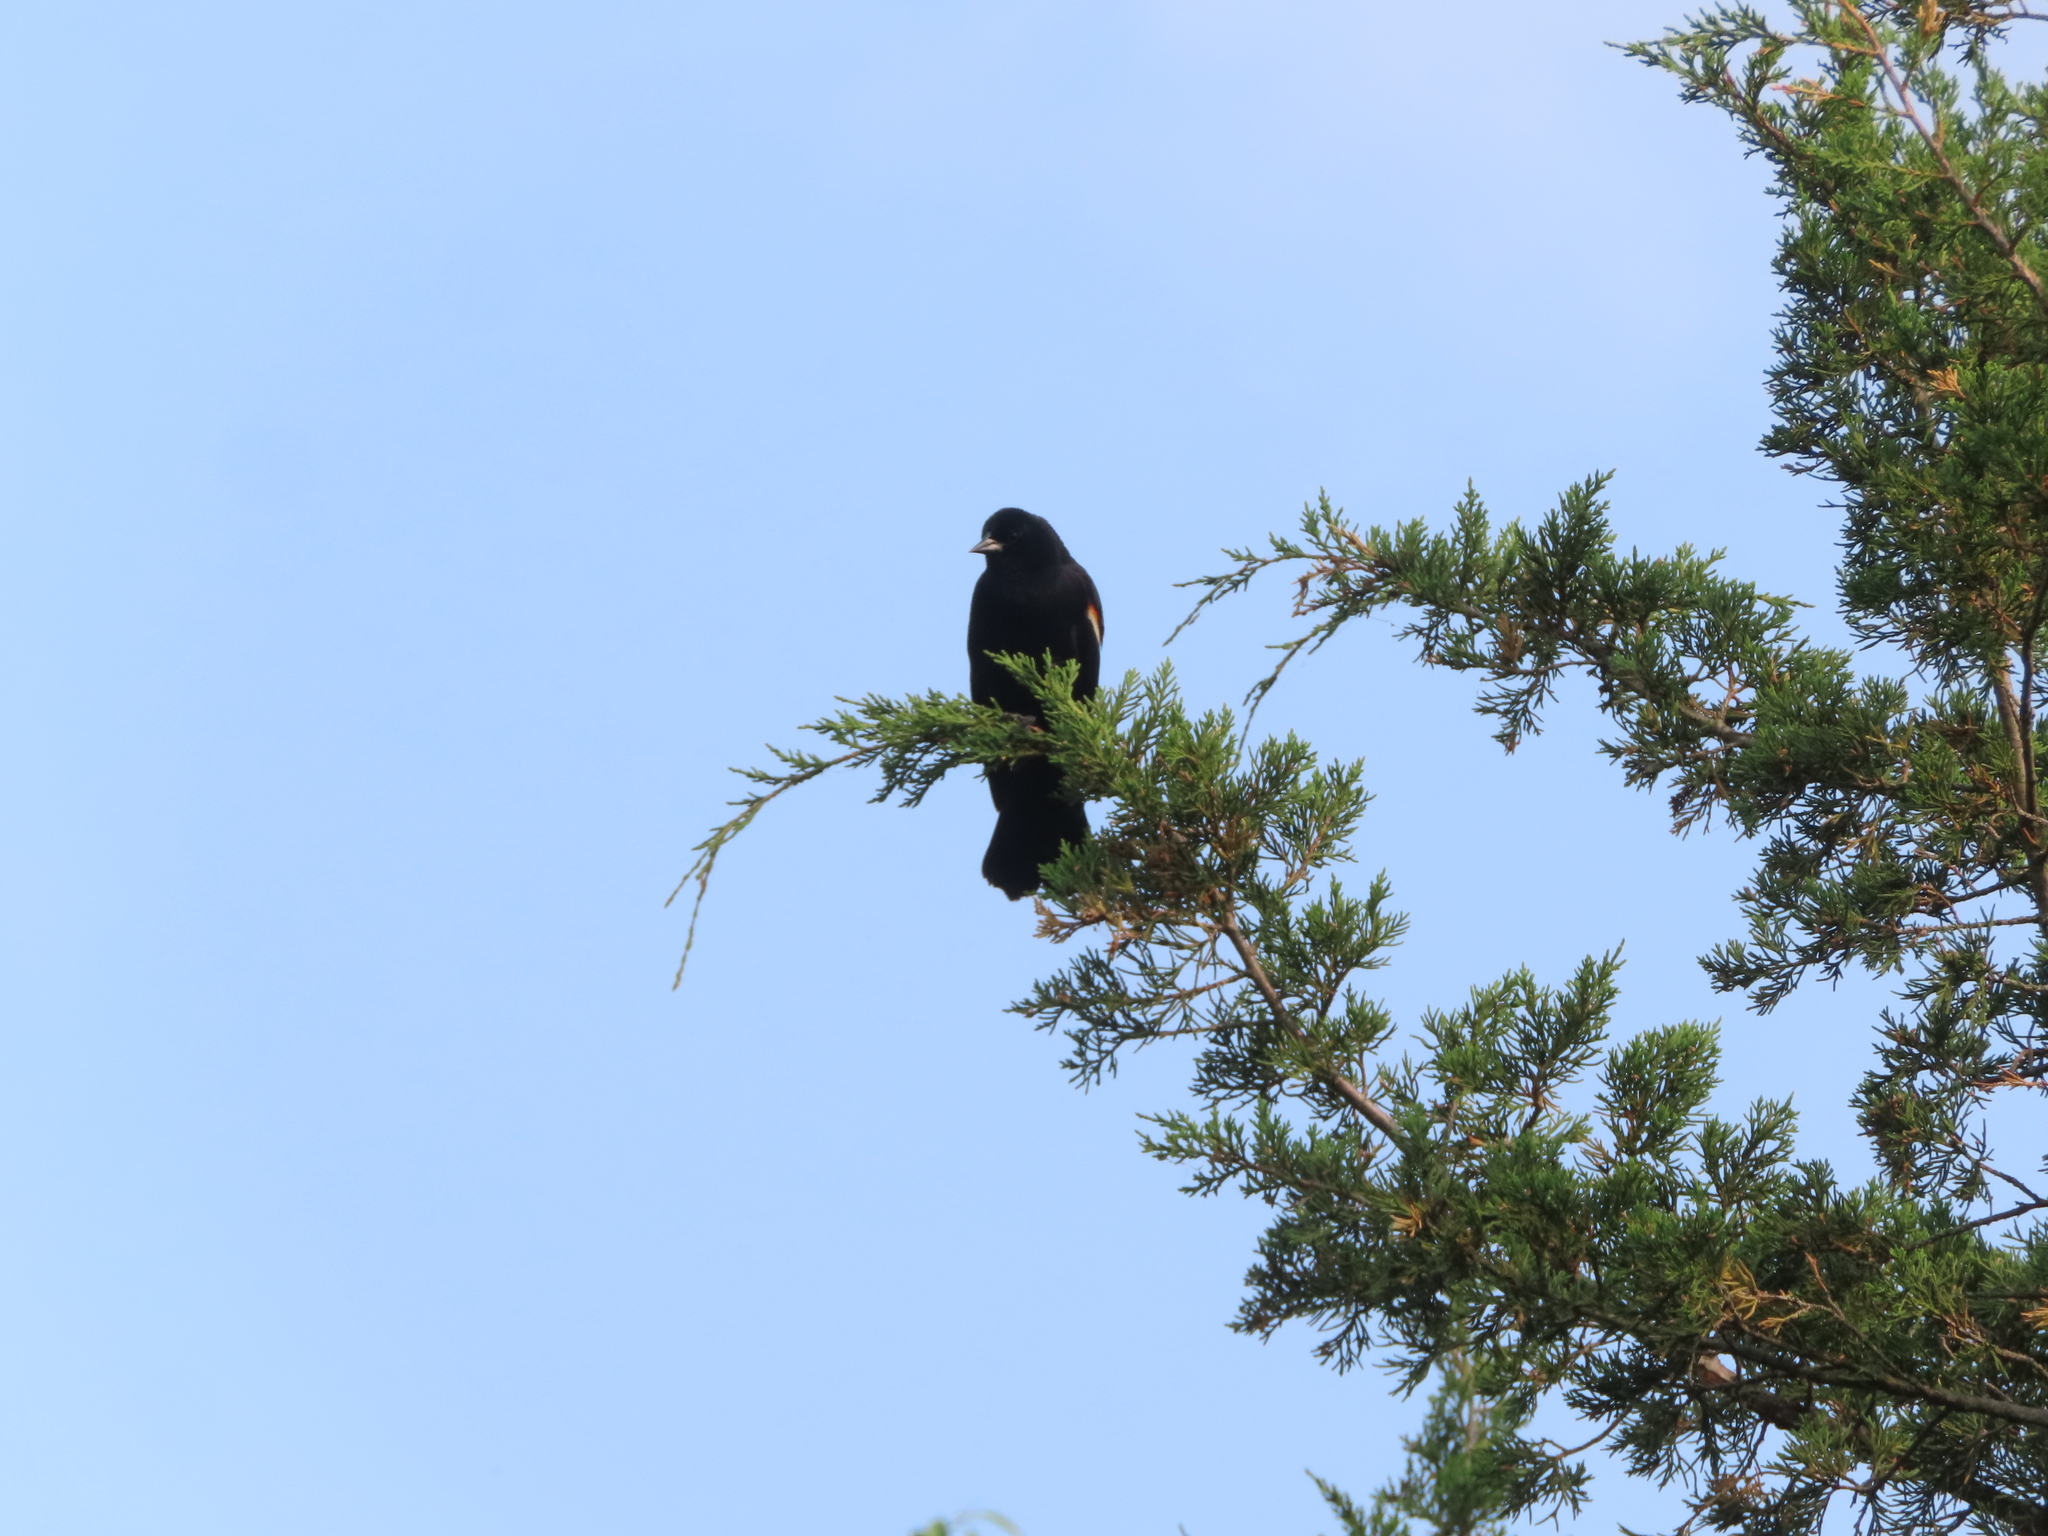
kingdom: Animalia
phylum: Chordata
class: Aves
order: Passeriformes
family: Icteridae
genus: Agelaius
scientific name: Agelaius phoeniceus
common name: Red-winged blackbird
